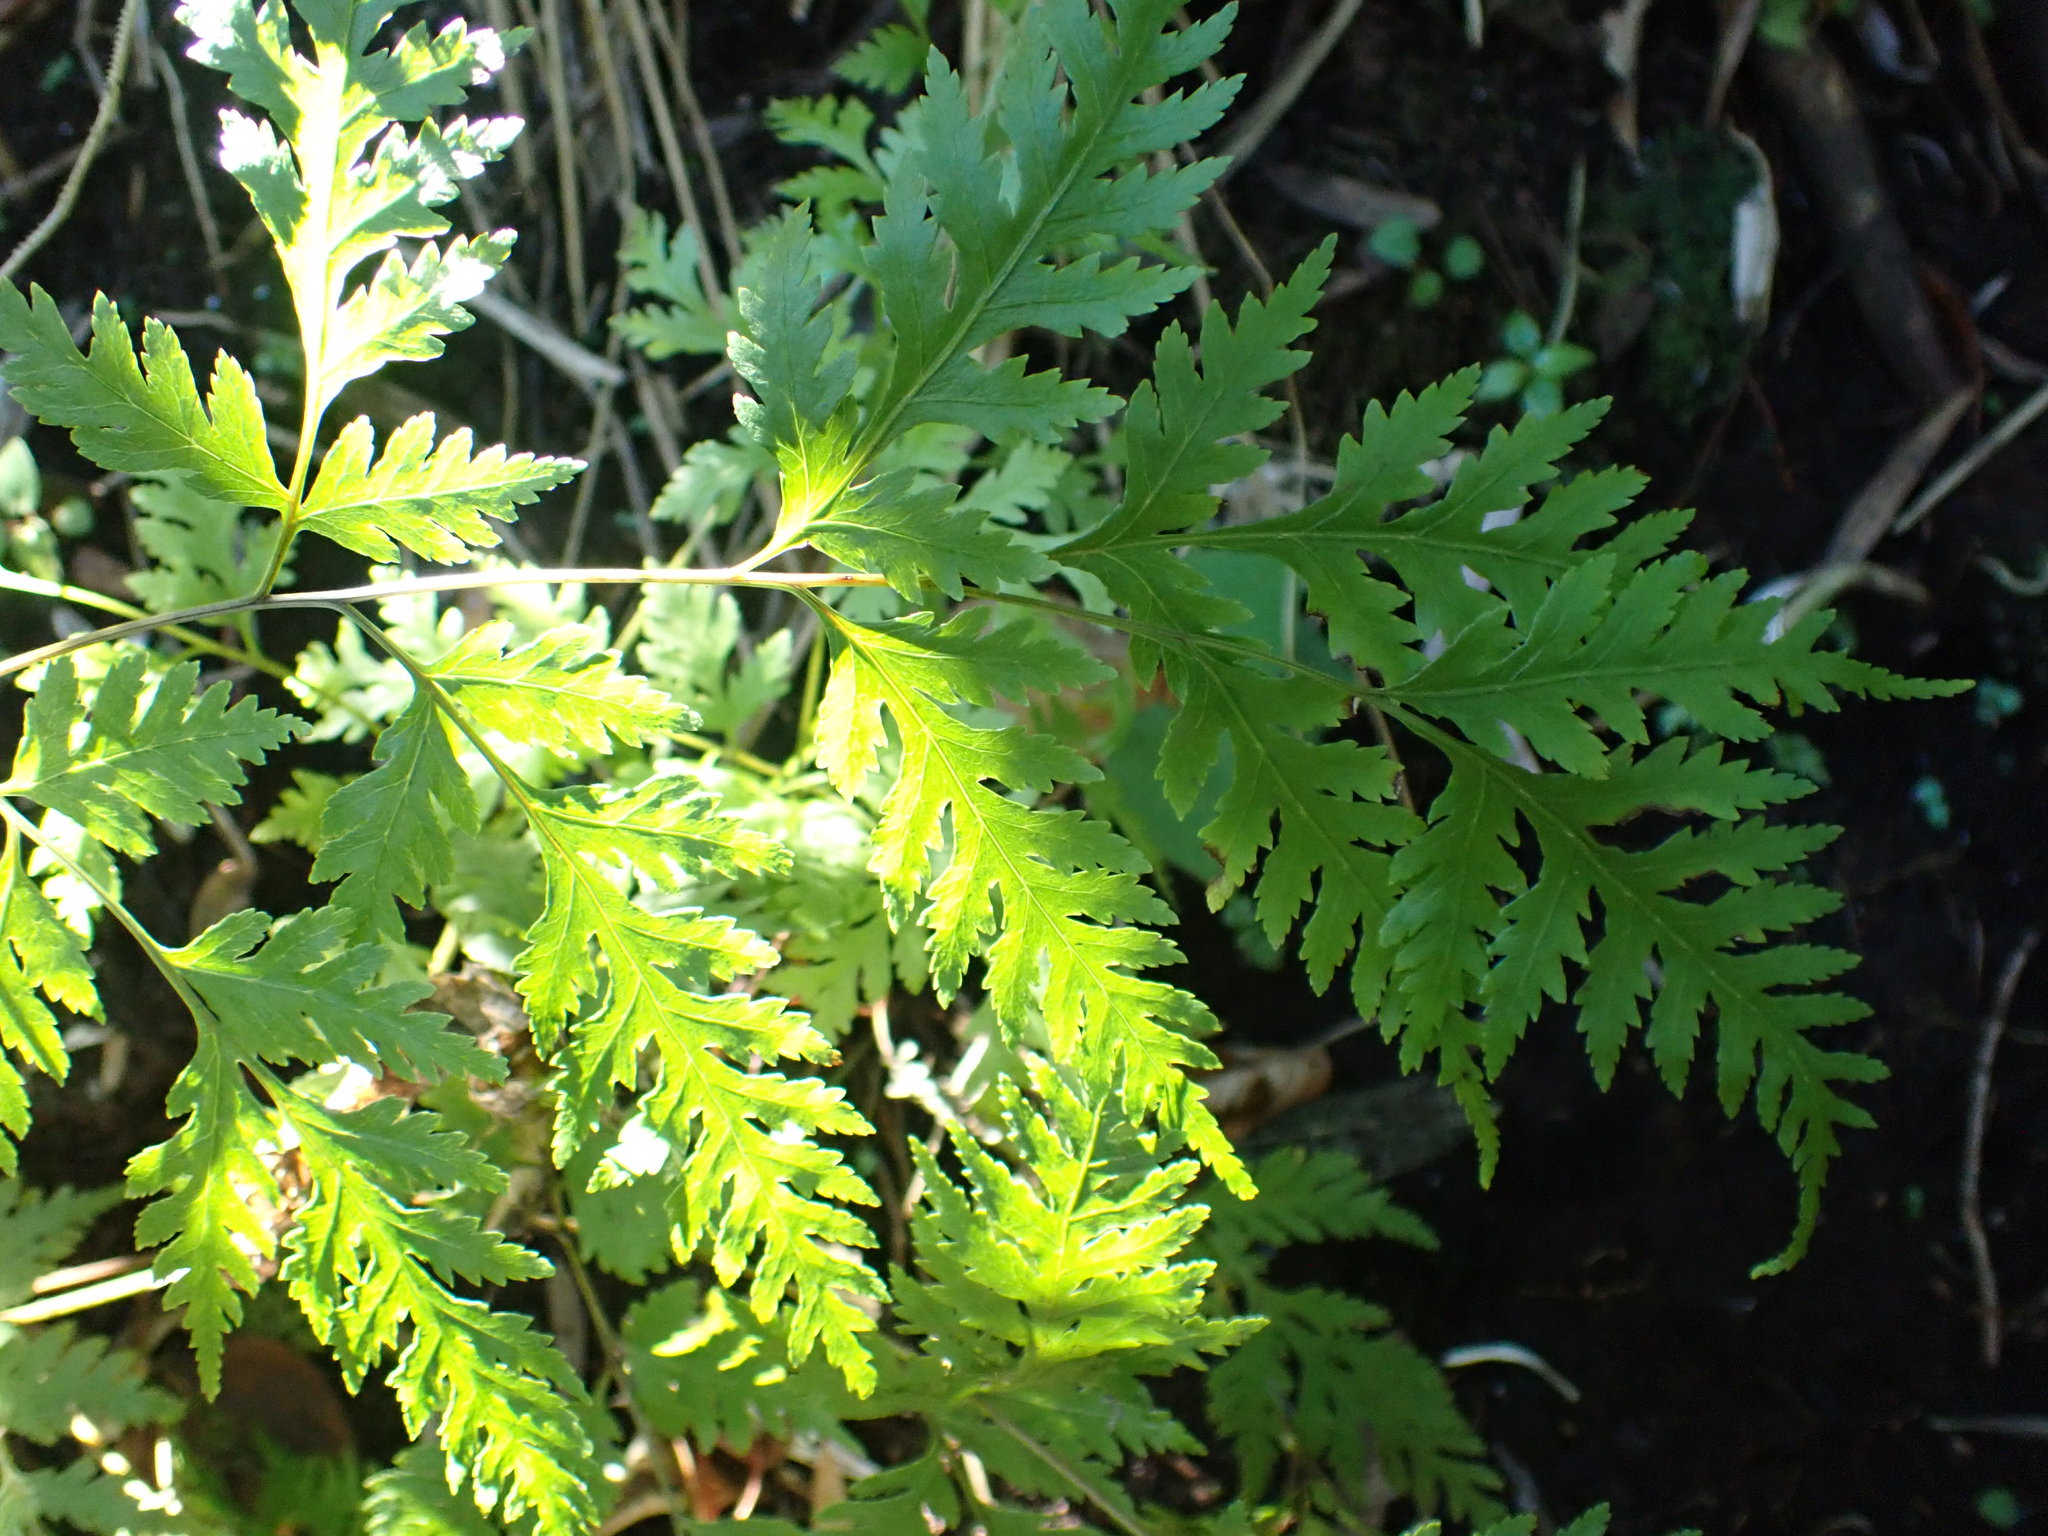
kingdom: Plantae
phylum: Tracheophyta
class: Polypodiopsida
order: Polypodiales
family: Pteridaceae
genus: Pteris
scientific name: Pteris macilenta
